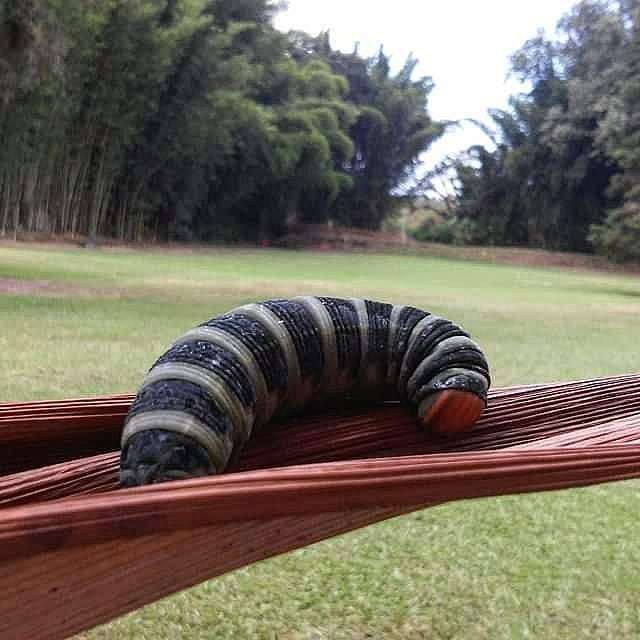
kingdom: Animalia
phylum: Arthropoda
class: Insecta
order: Lepidoptera
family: Sphingidae
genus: Pachylia
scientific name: Pachylia syces
